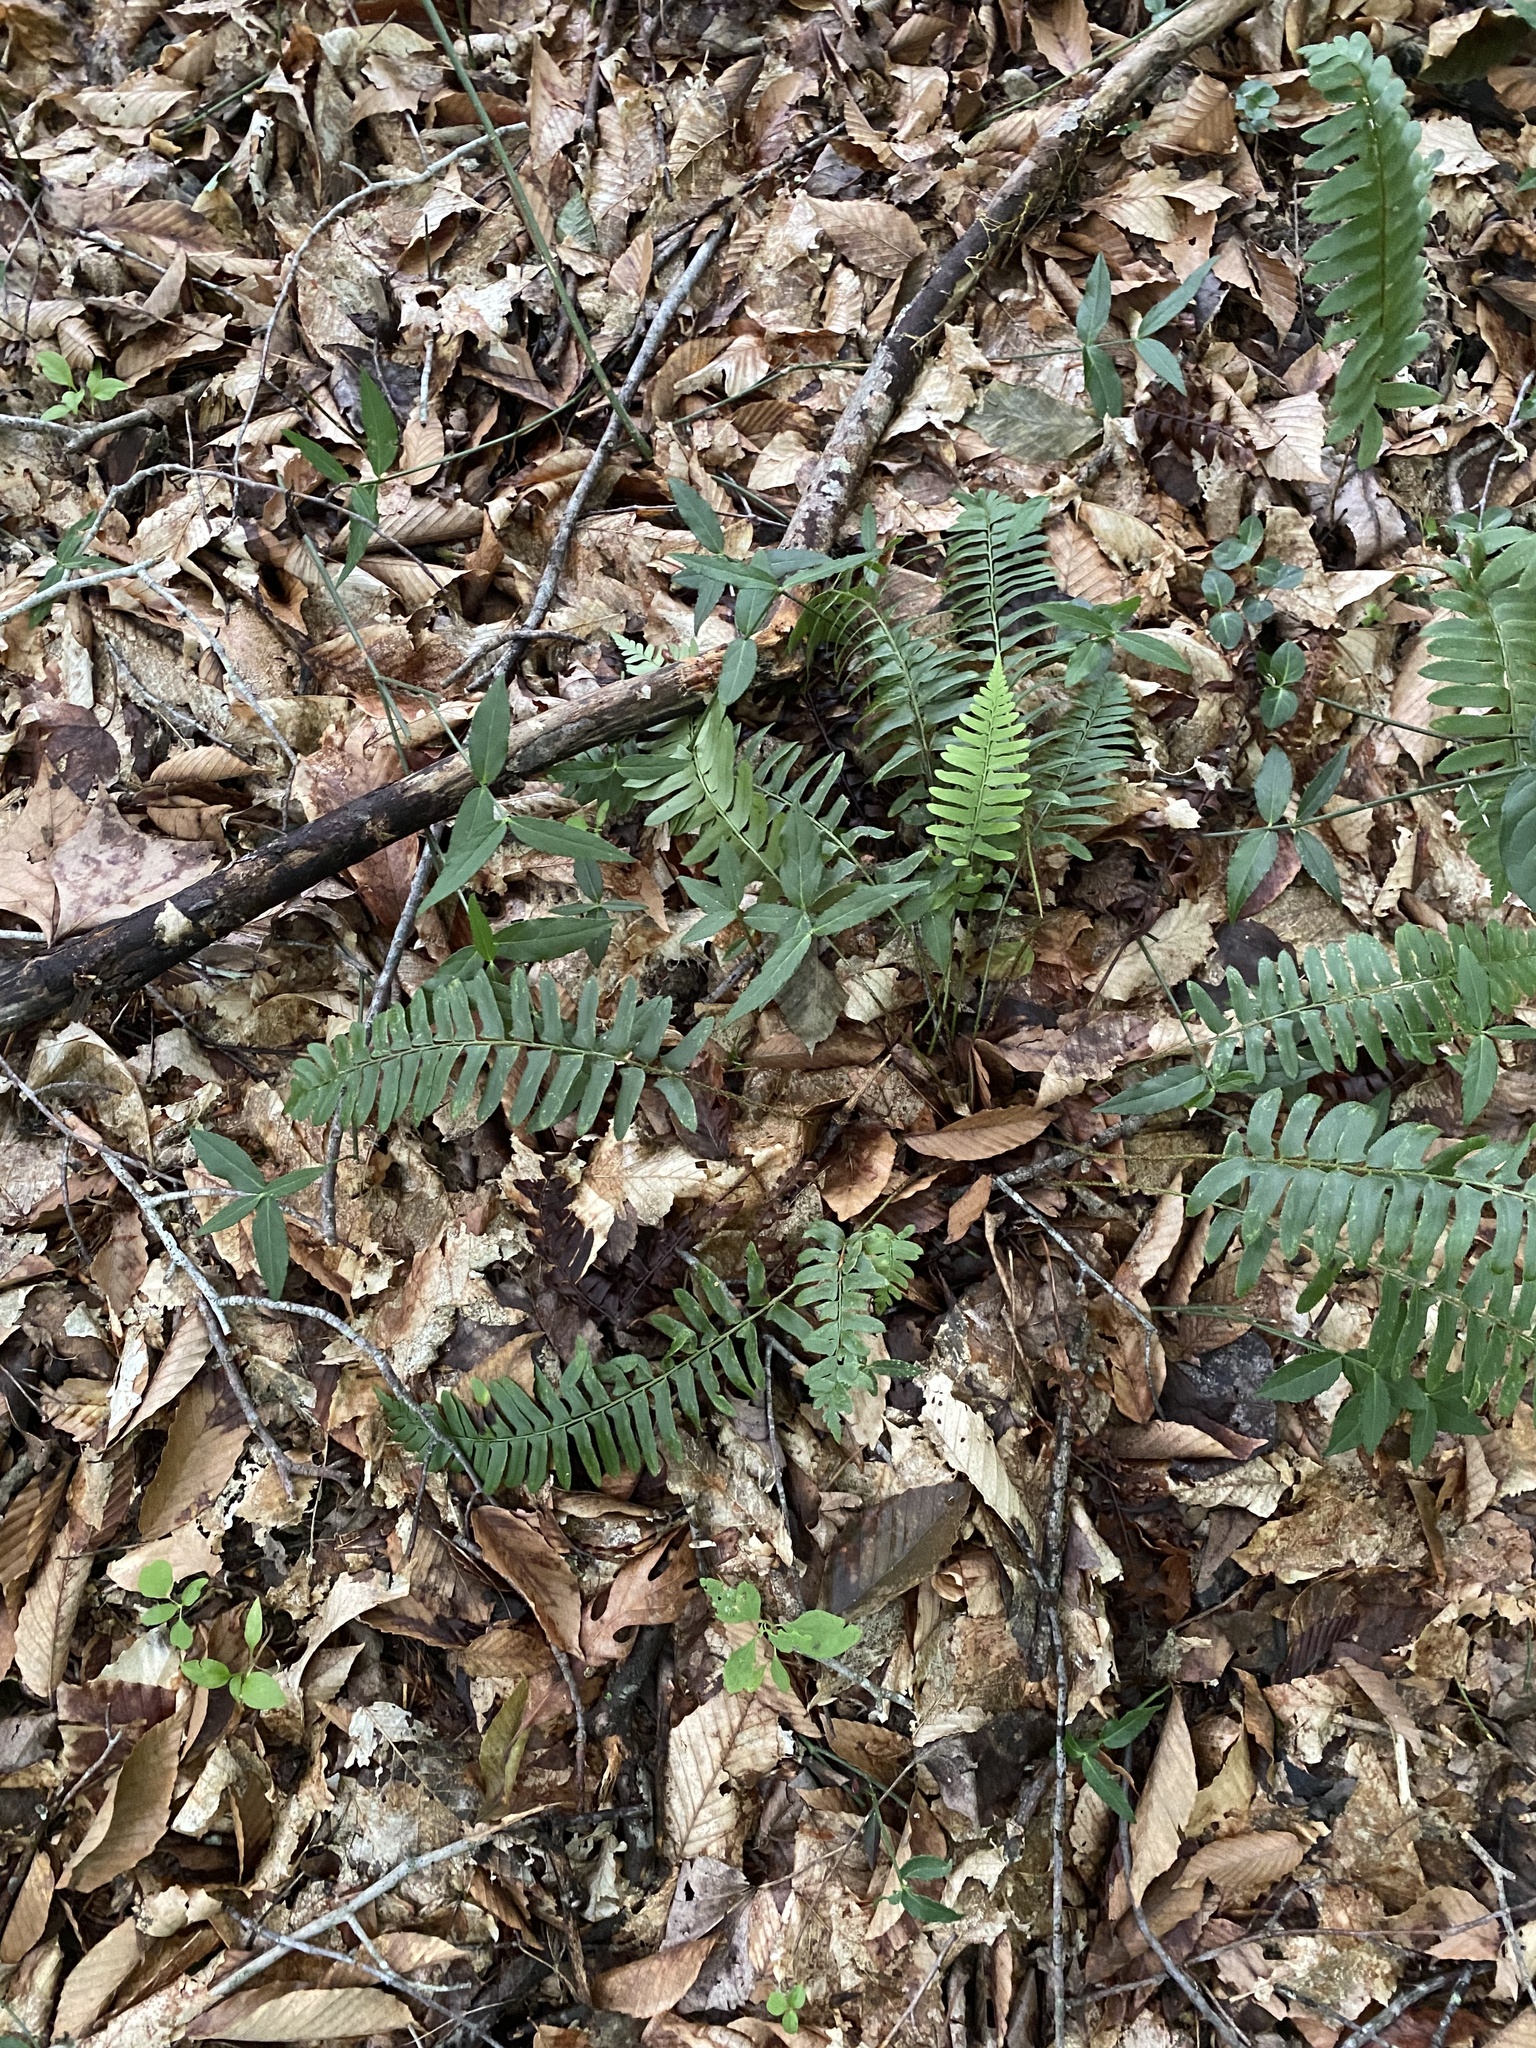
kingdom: Plantae
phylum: Tracheophyta
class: Polypodiopsida
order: Polypodiales
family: Dryopteridaceae
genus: Polystichum
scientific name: Polystichum acrostichoides
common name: Christmas fern
